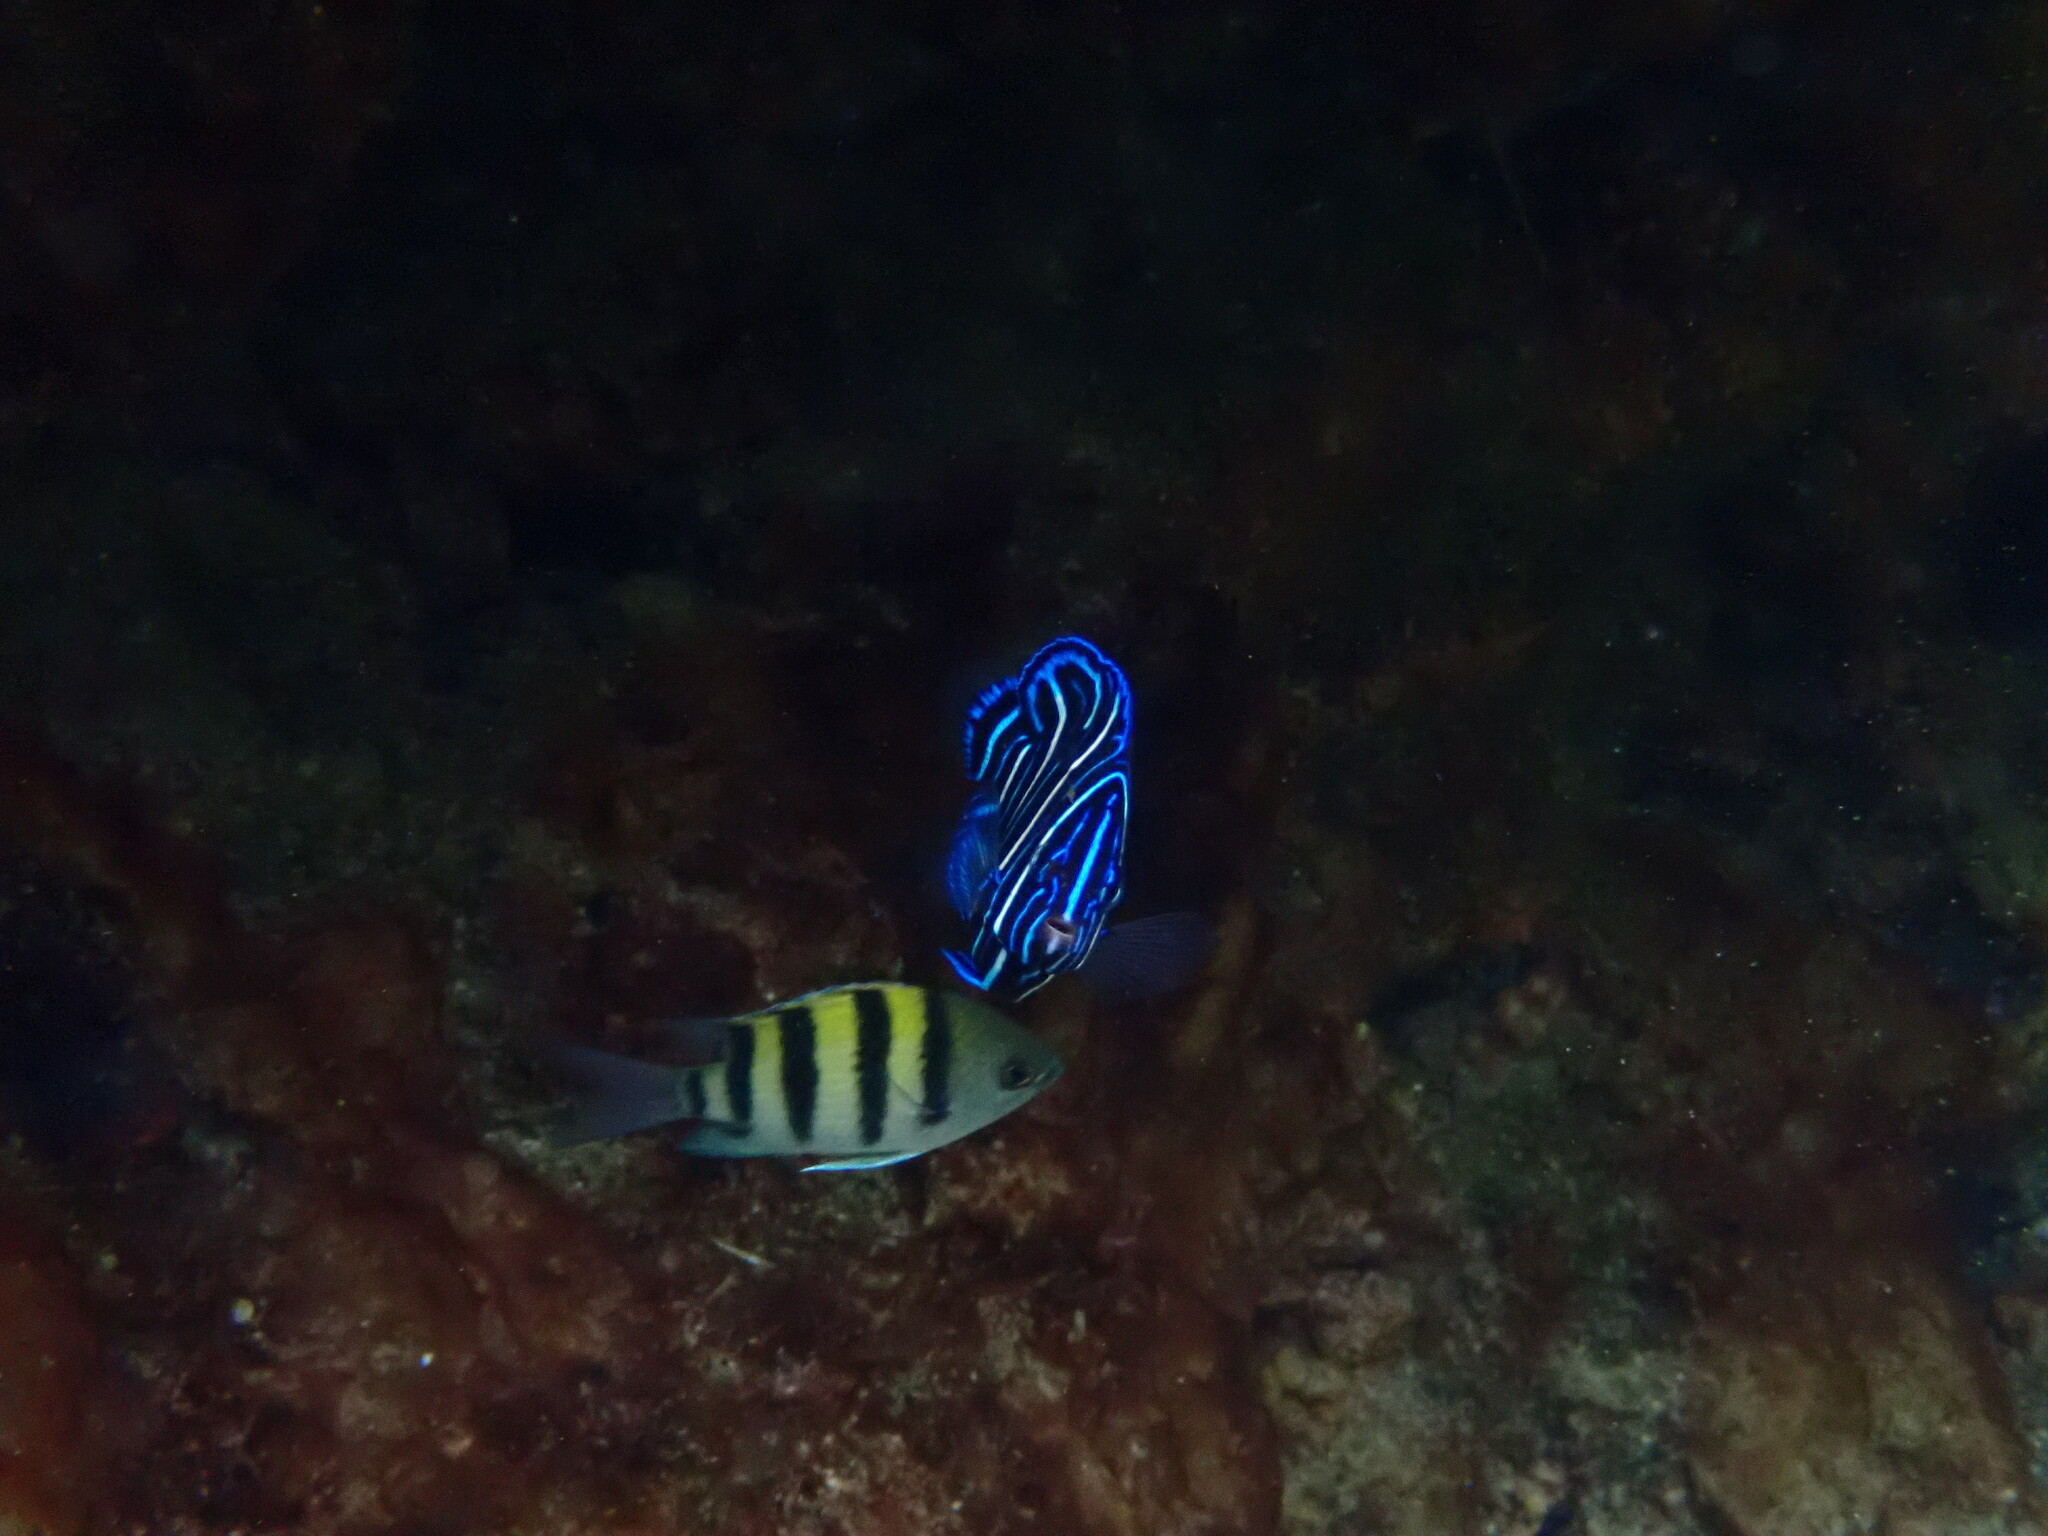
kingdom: Animalia
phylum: Chordata
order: Perciformes
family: Pomacentridae
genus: Abudefduf
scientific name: Abudefduf vaigiensis
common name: Indo-pacific sergeant
